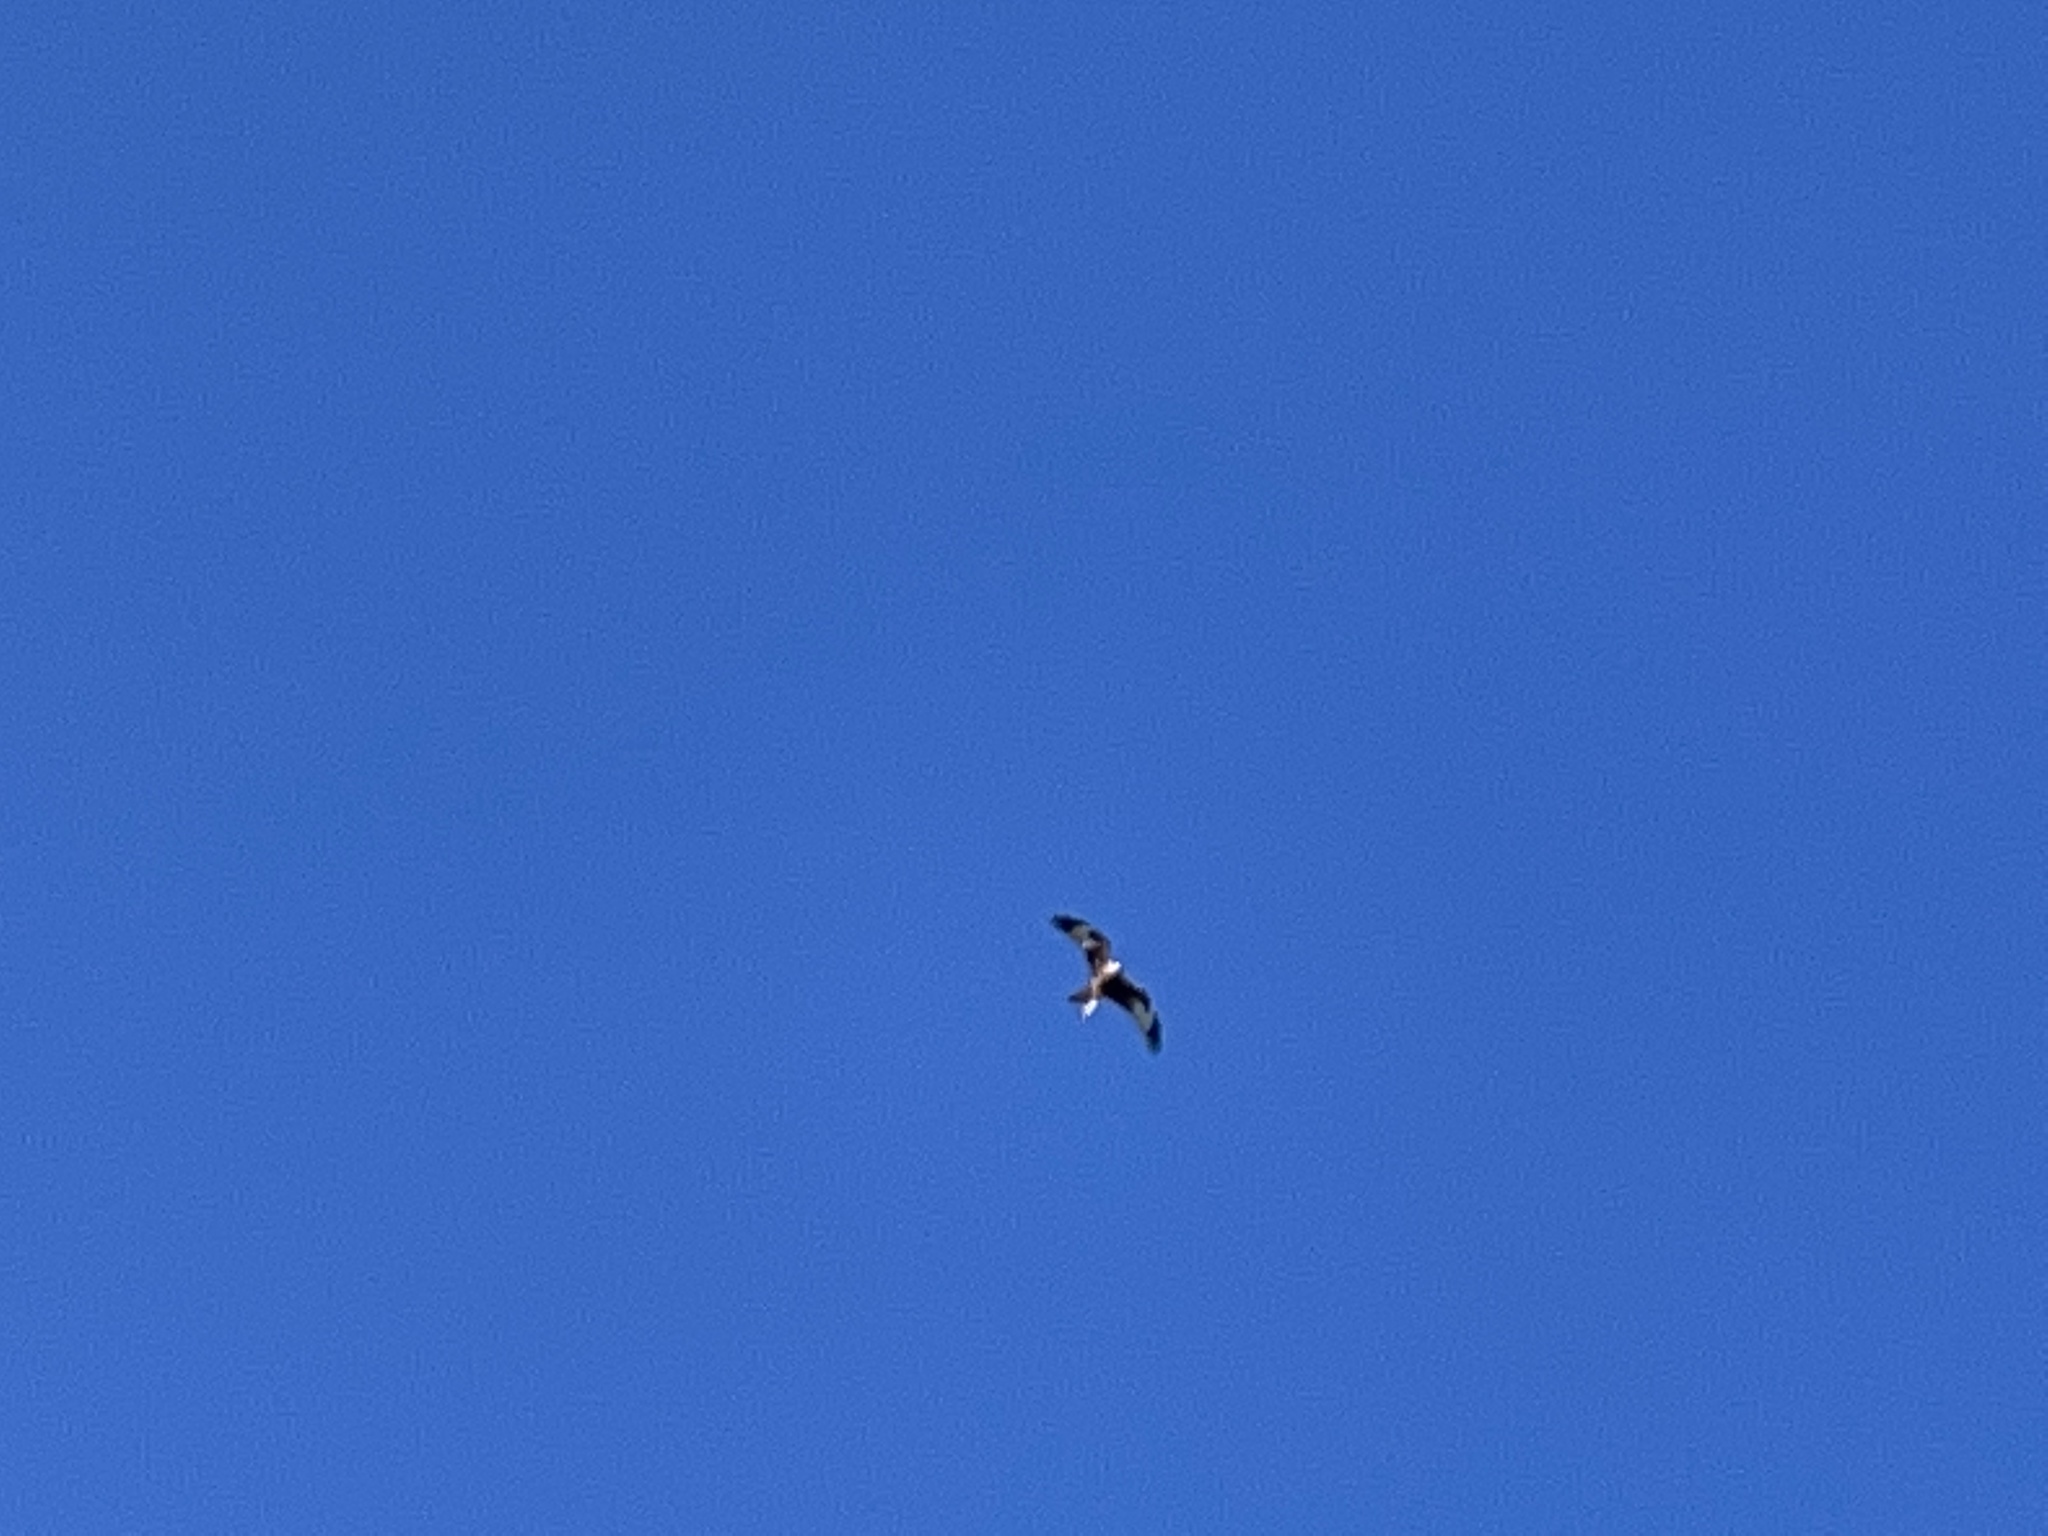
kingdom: Animalia
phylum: Chordata
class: Aves
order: Accipitriformes
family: Accipitridae
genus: Milvus
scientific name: Milvus milvus
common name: Red kite
